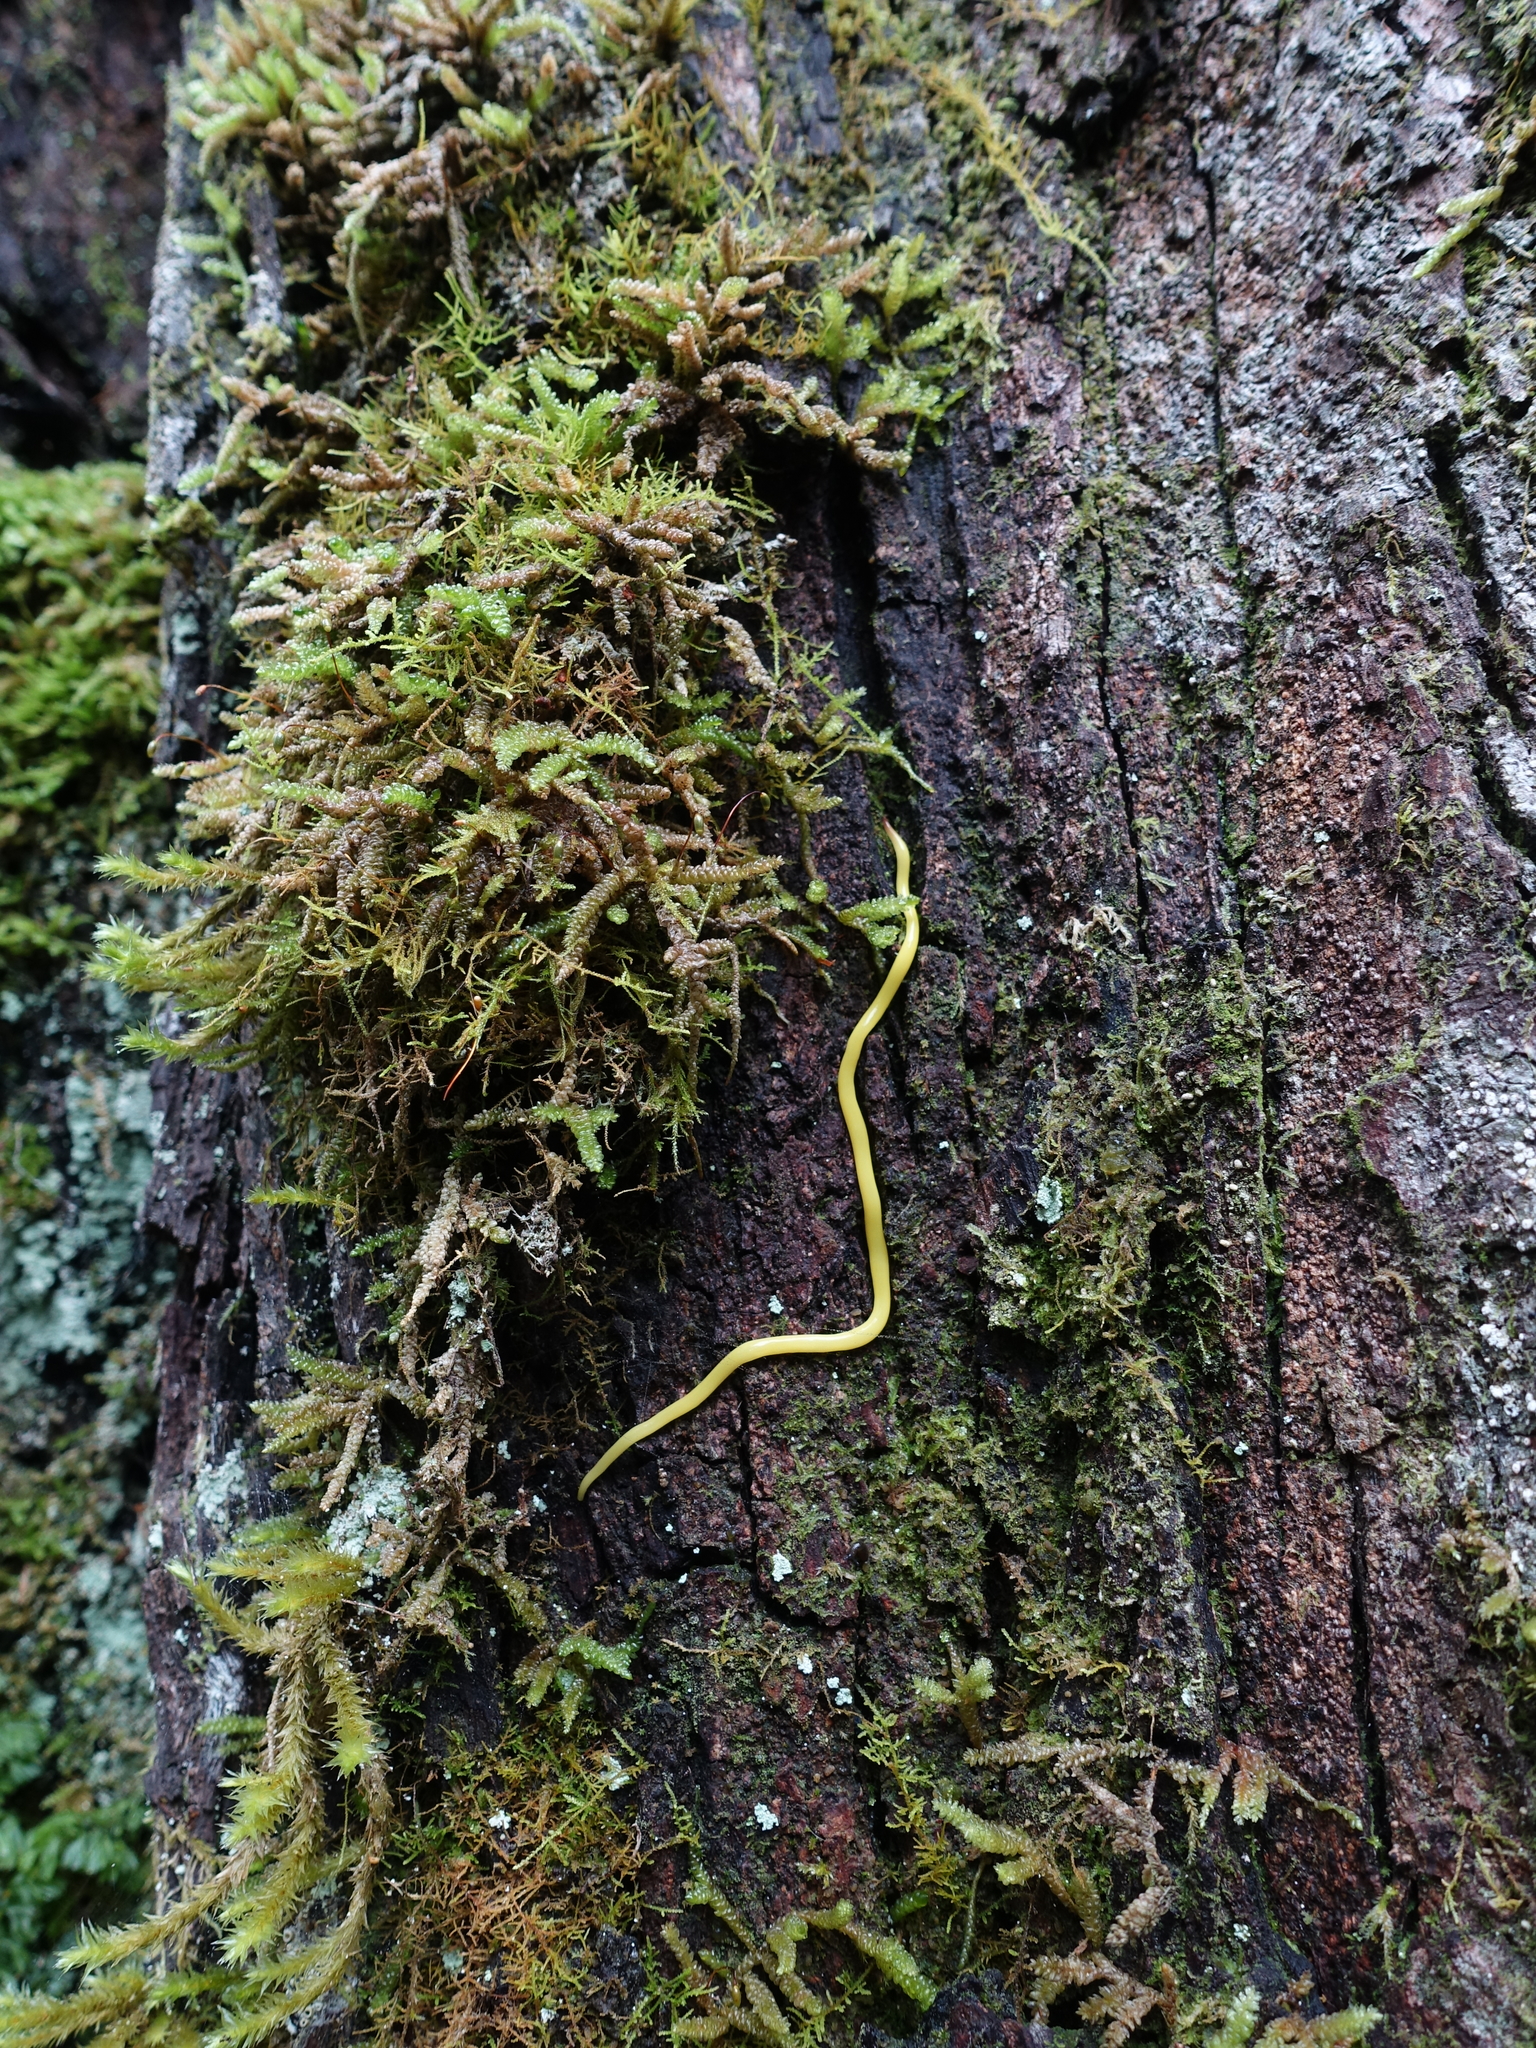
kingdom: Animalia
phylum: Platyhelminthes
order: Tricladida
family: Geoplanidae
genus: Fletchamia
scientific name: Fletchamia sugdeni
